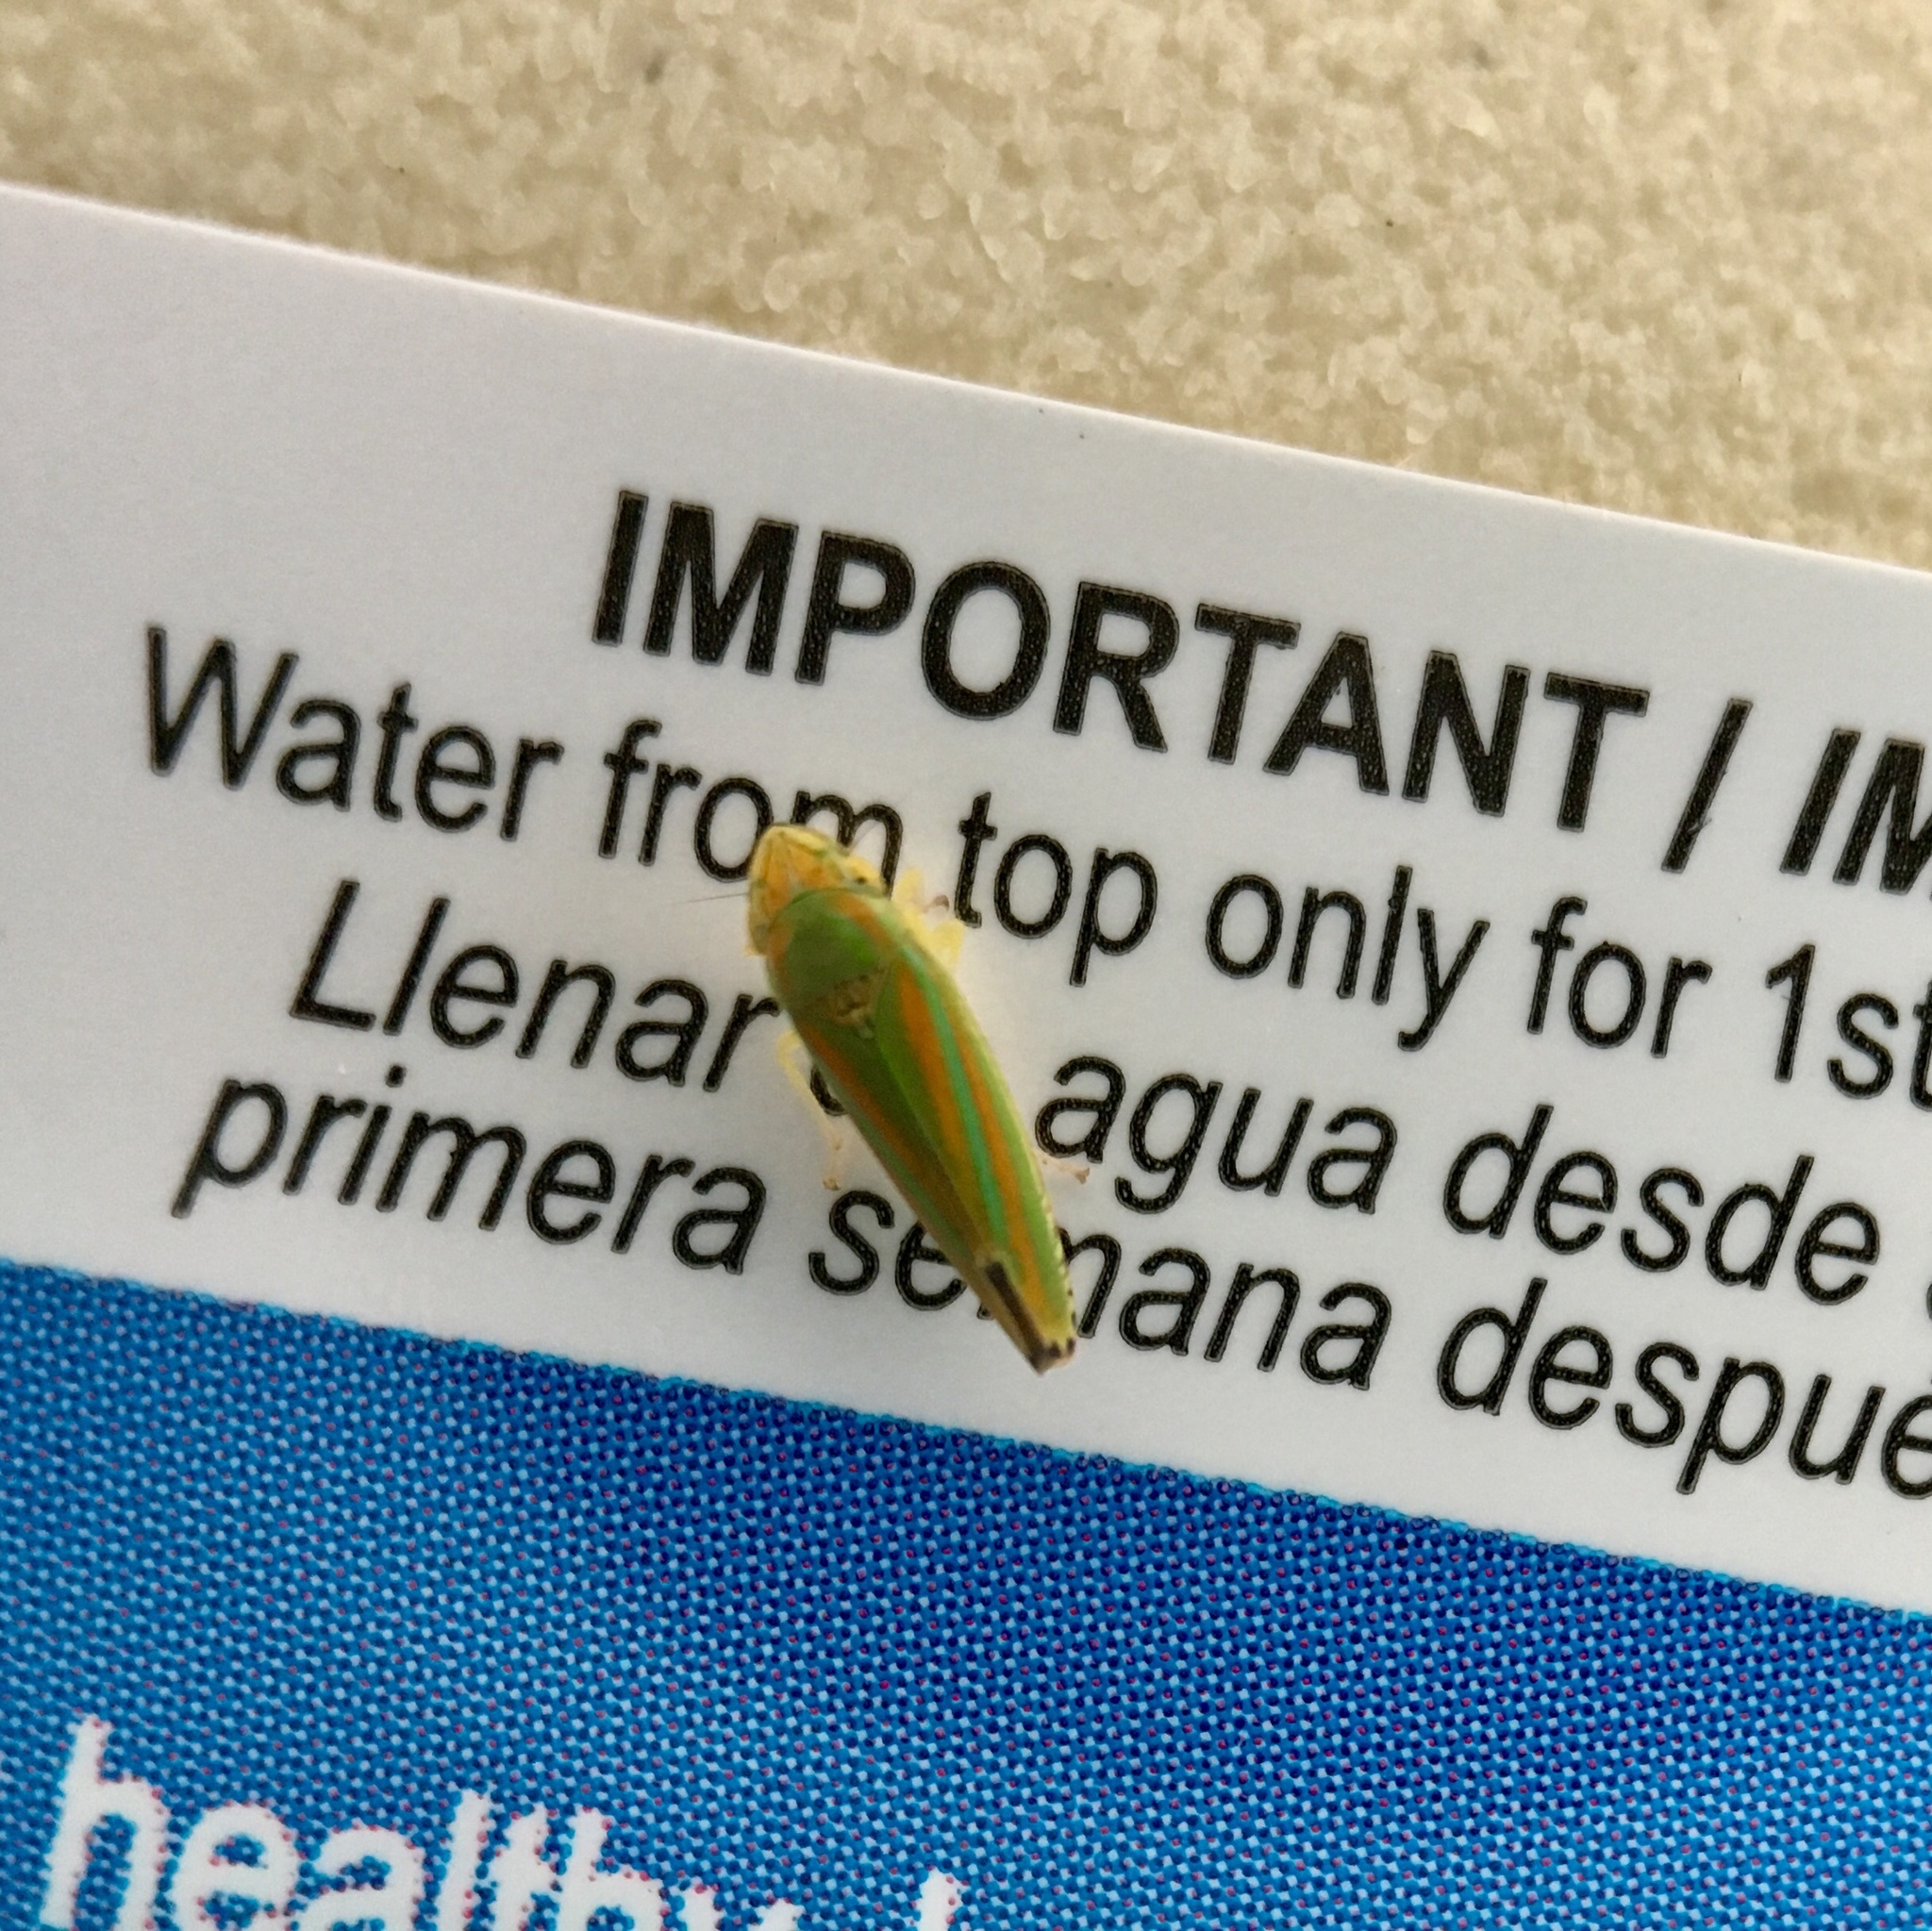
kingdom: Animalia
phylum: Arthropoda
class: Insecta
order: Hemiptera
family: Cicadellidae
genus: Graphocephala
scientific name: Graphocephala versuta
